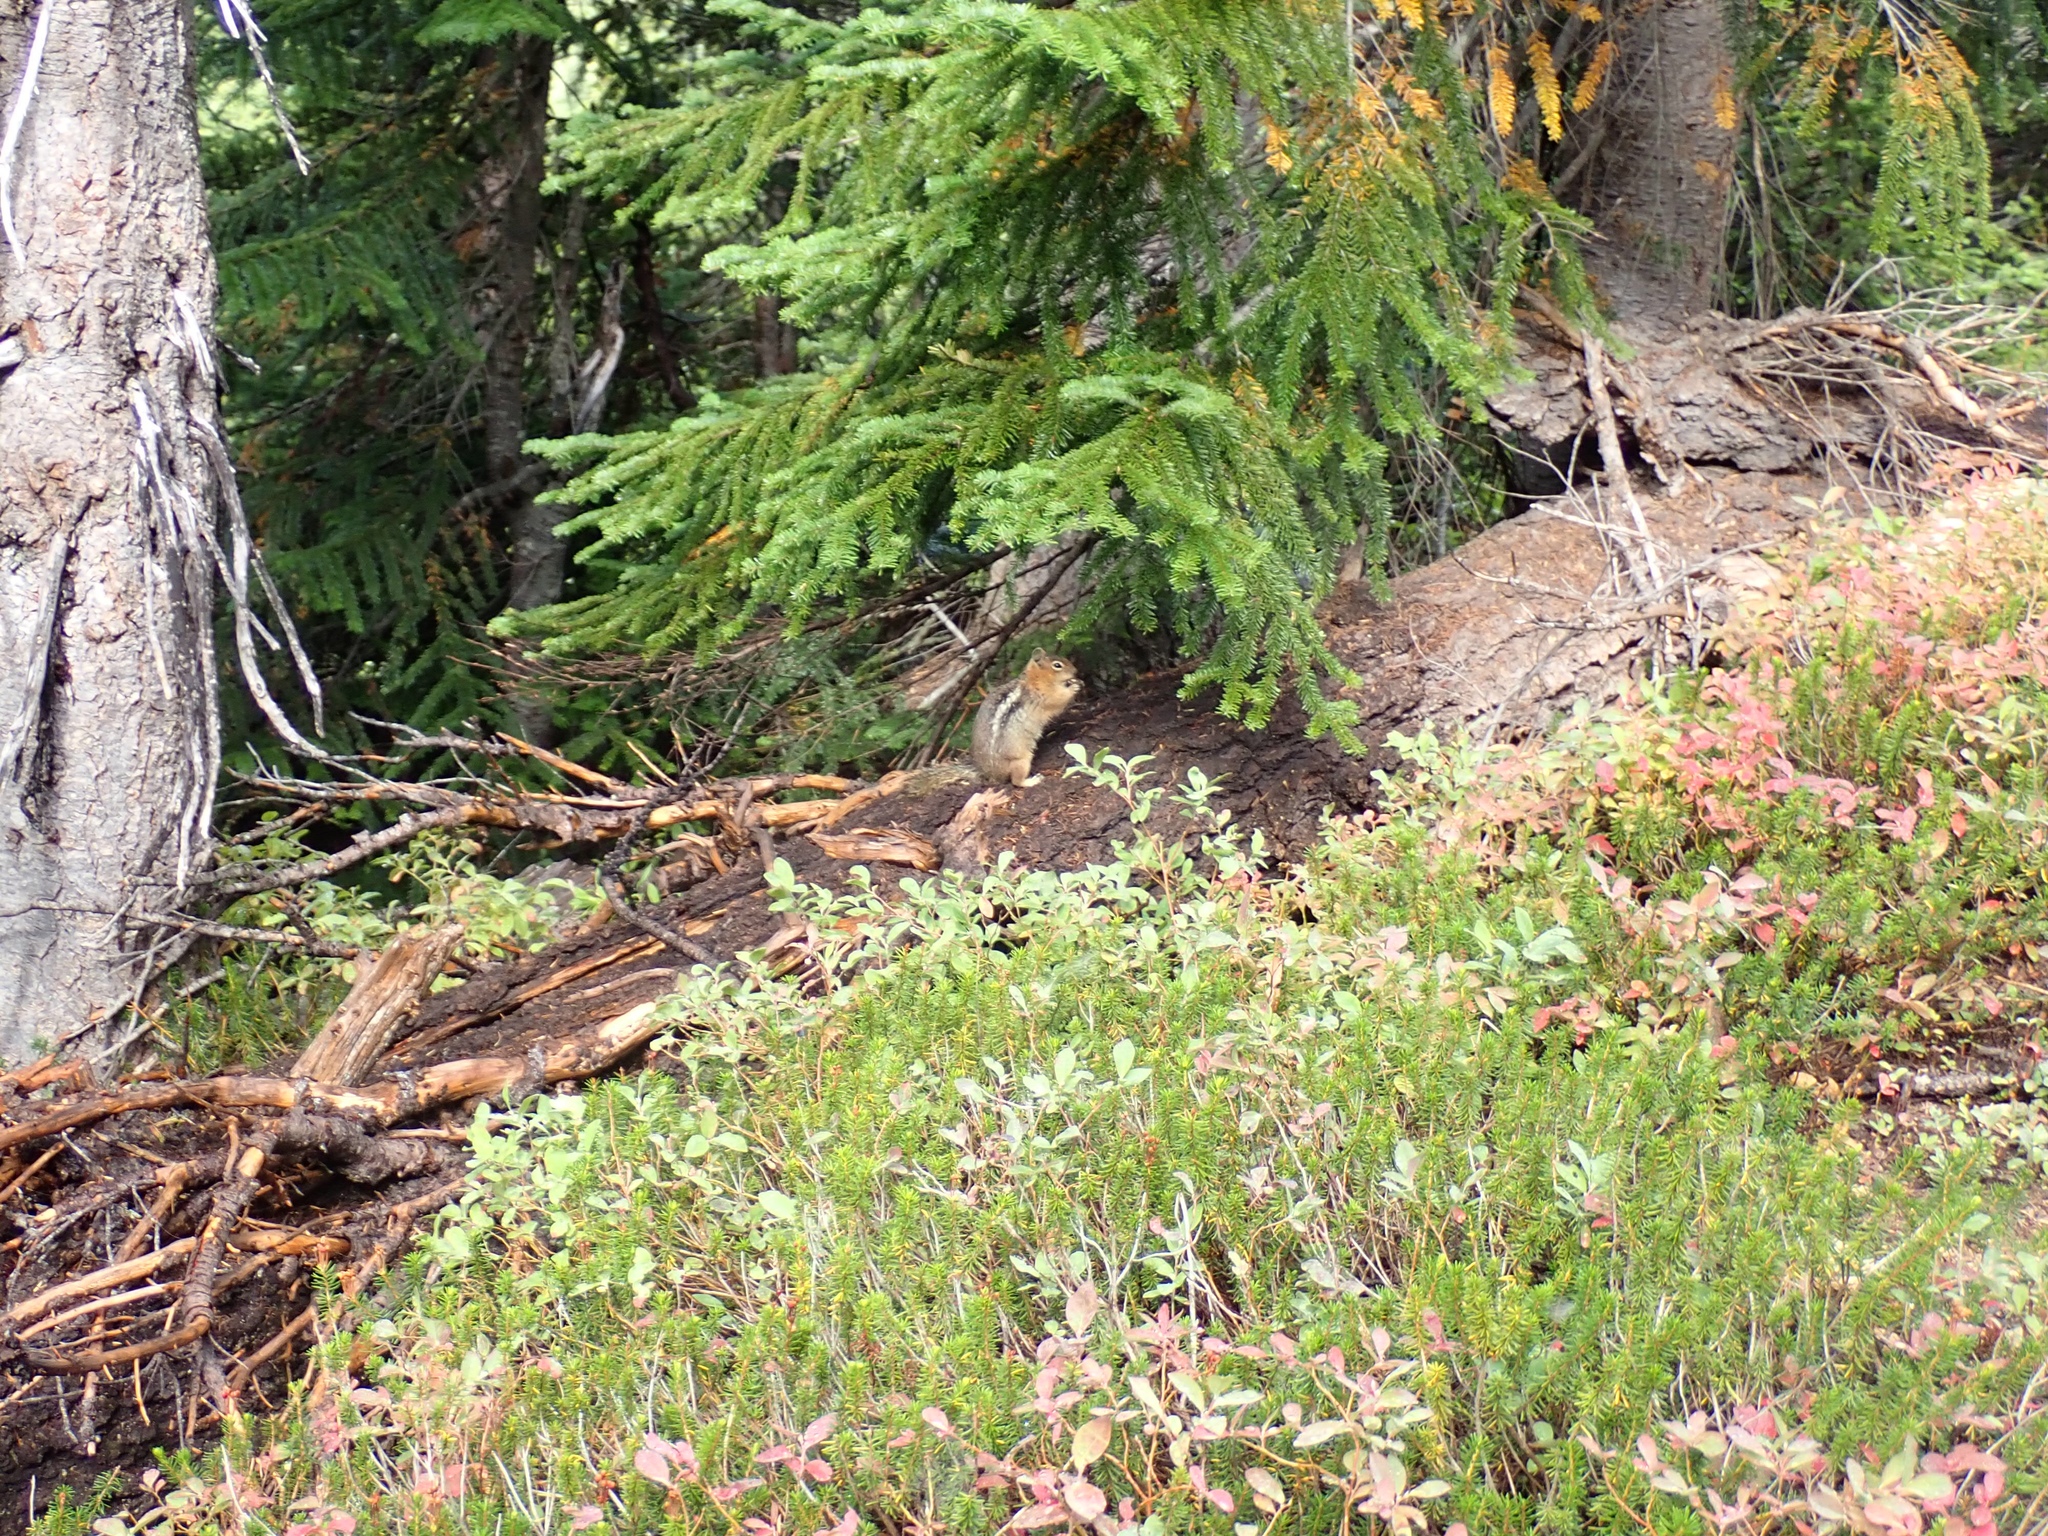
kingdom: Animalia
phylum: Chordata
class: Mammalia
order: Rodentia
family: Sciuridae
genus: Callospermophilus
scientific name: Callospermophilus saturatus
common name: Cascade golden-mantled ground squirrel
